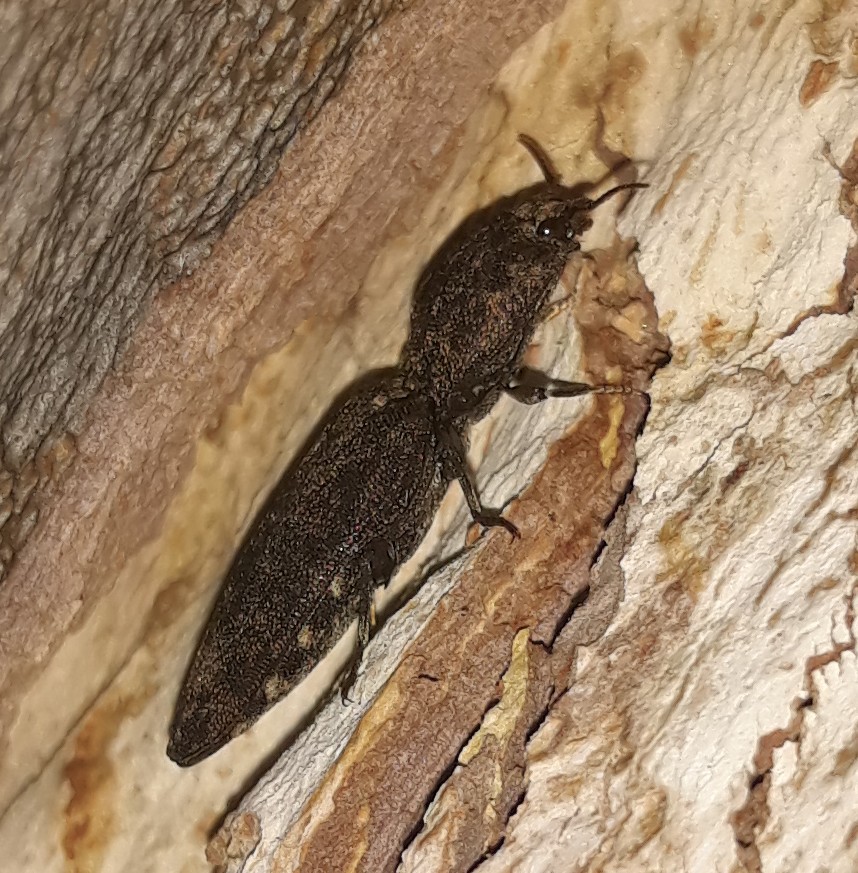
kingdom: Animalia
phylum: Arthropoda
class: Insecta
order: Coleoptera
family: Elateridae
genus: Lacon
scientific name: Lacon avitus
